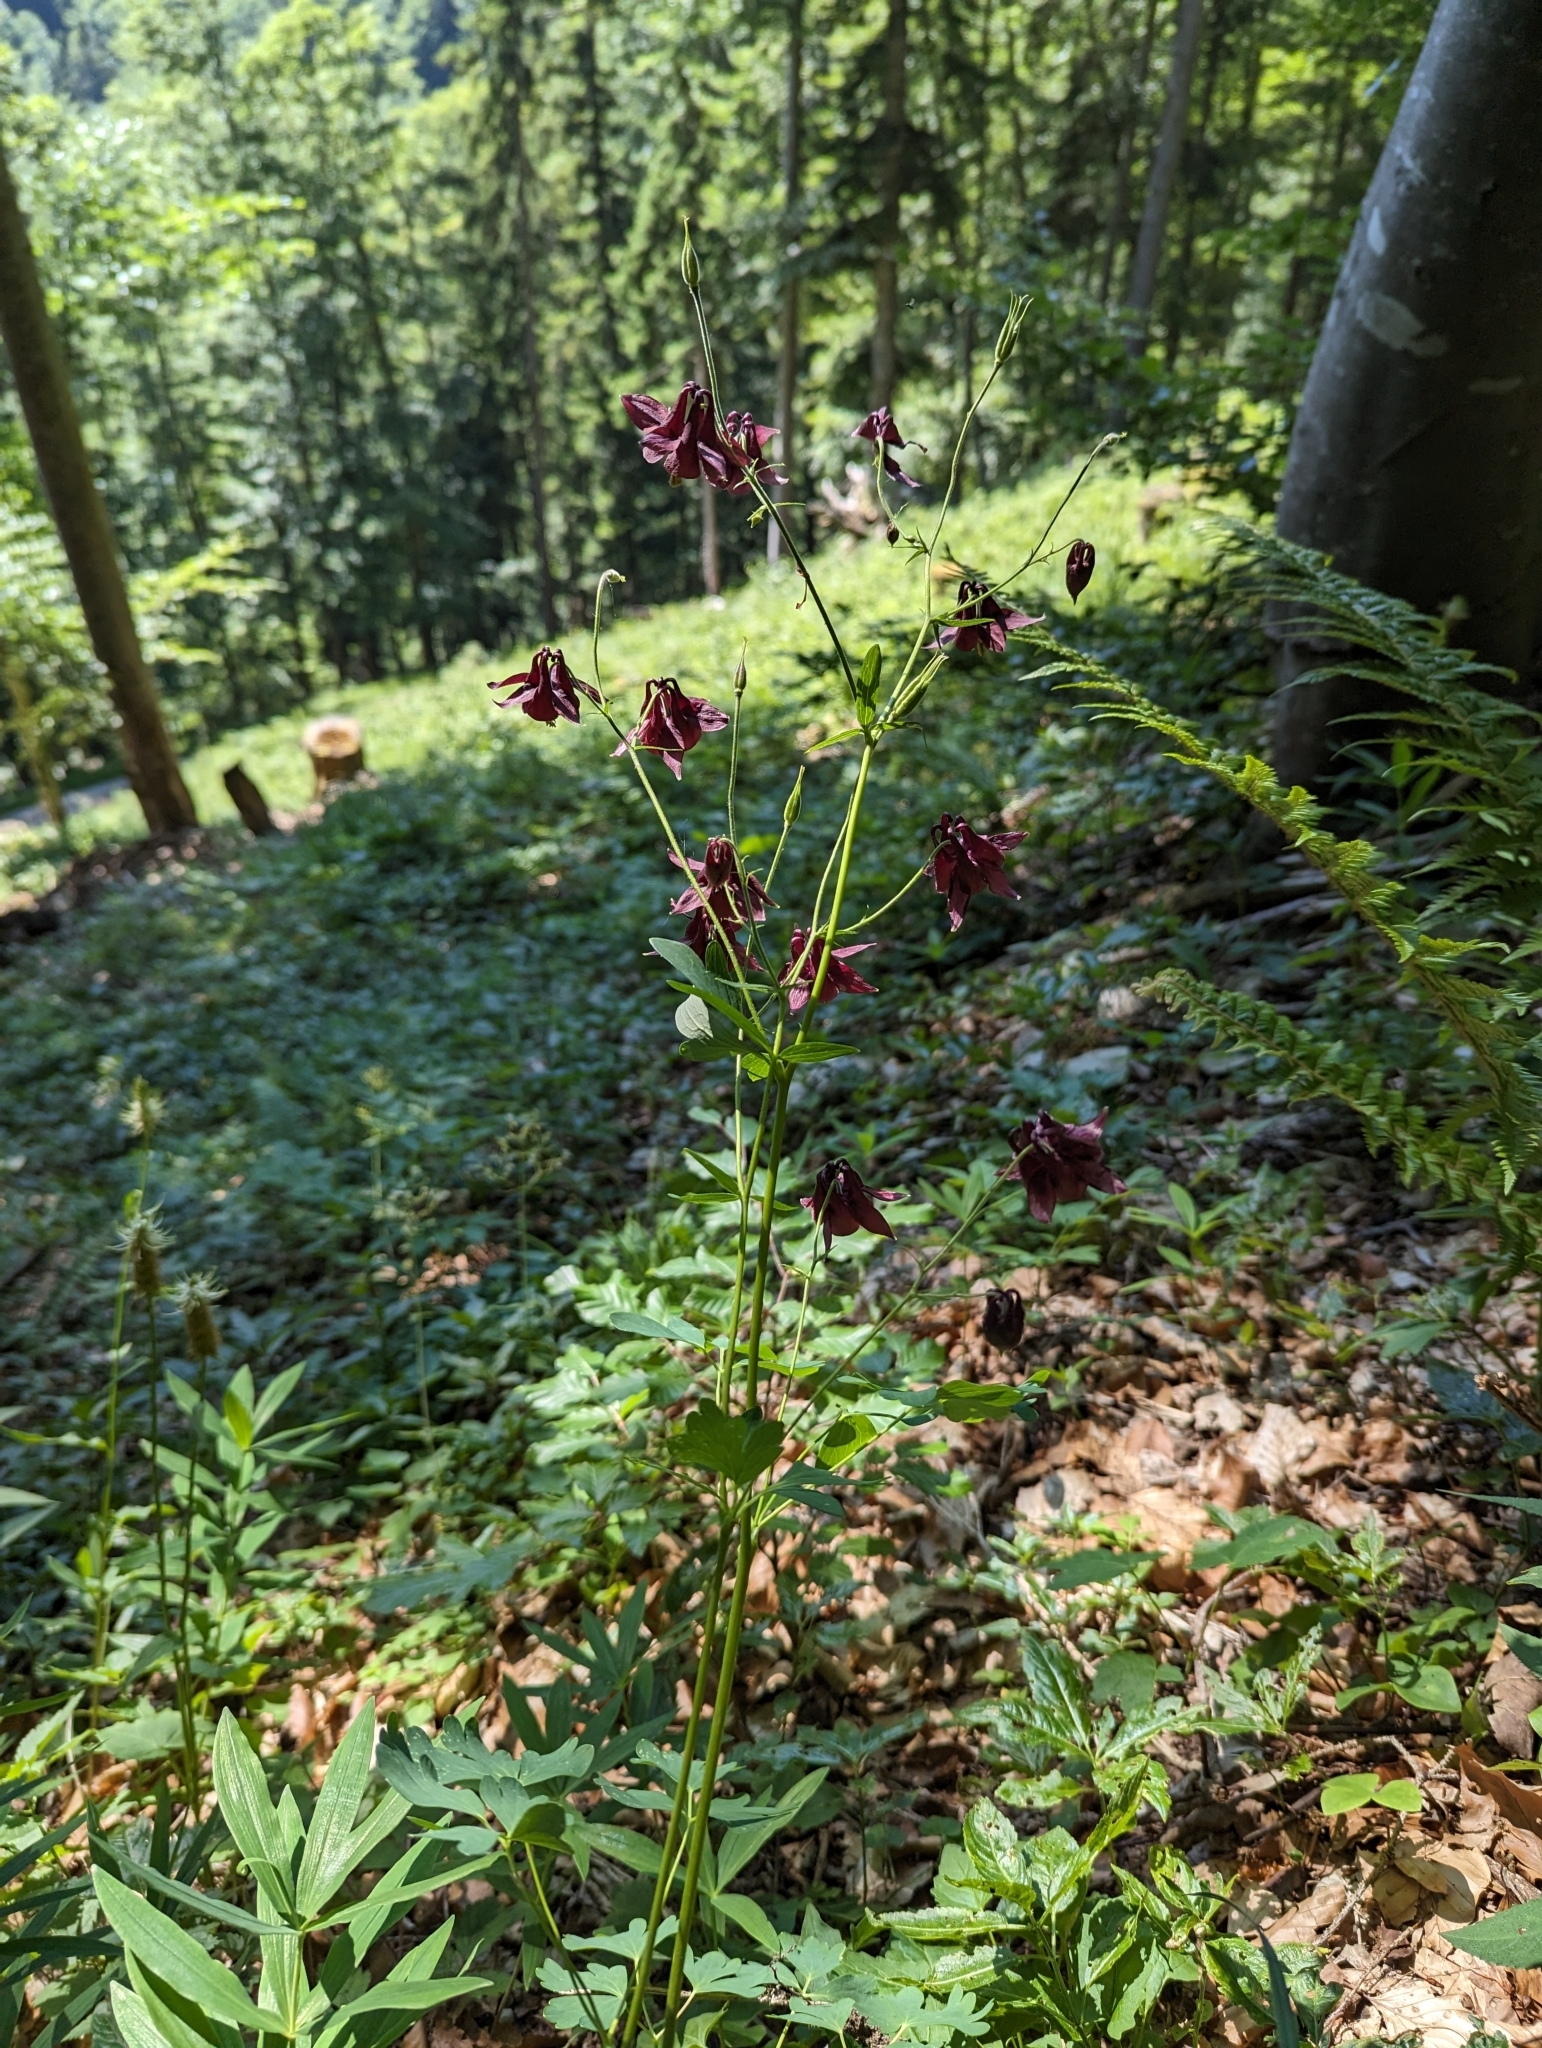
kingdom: Plantae
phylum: Tracheophyta
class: Magnoliopsida
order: Ranunculales
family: Ranunculaceae
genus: Aquilegia
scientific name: Aquilegia atrata
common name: Dark columbine
